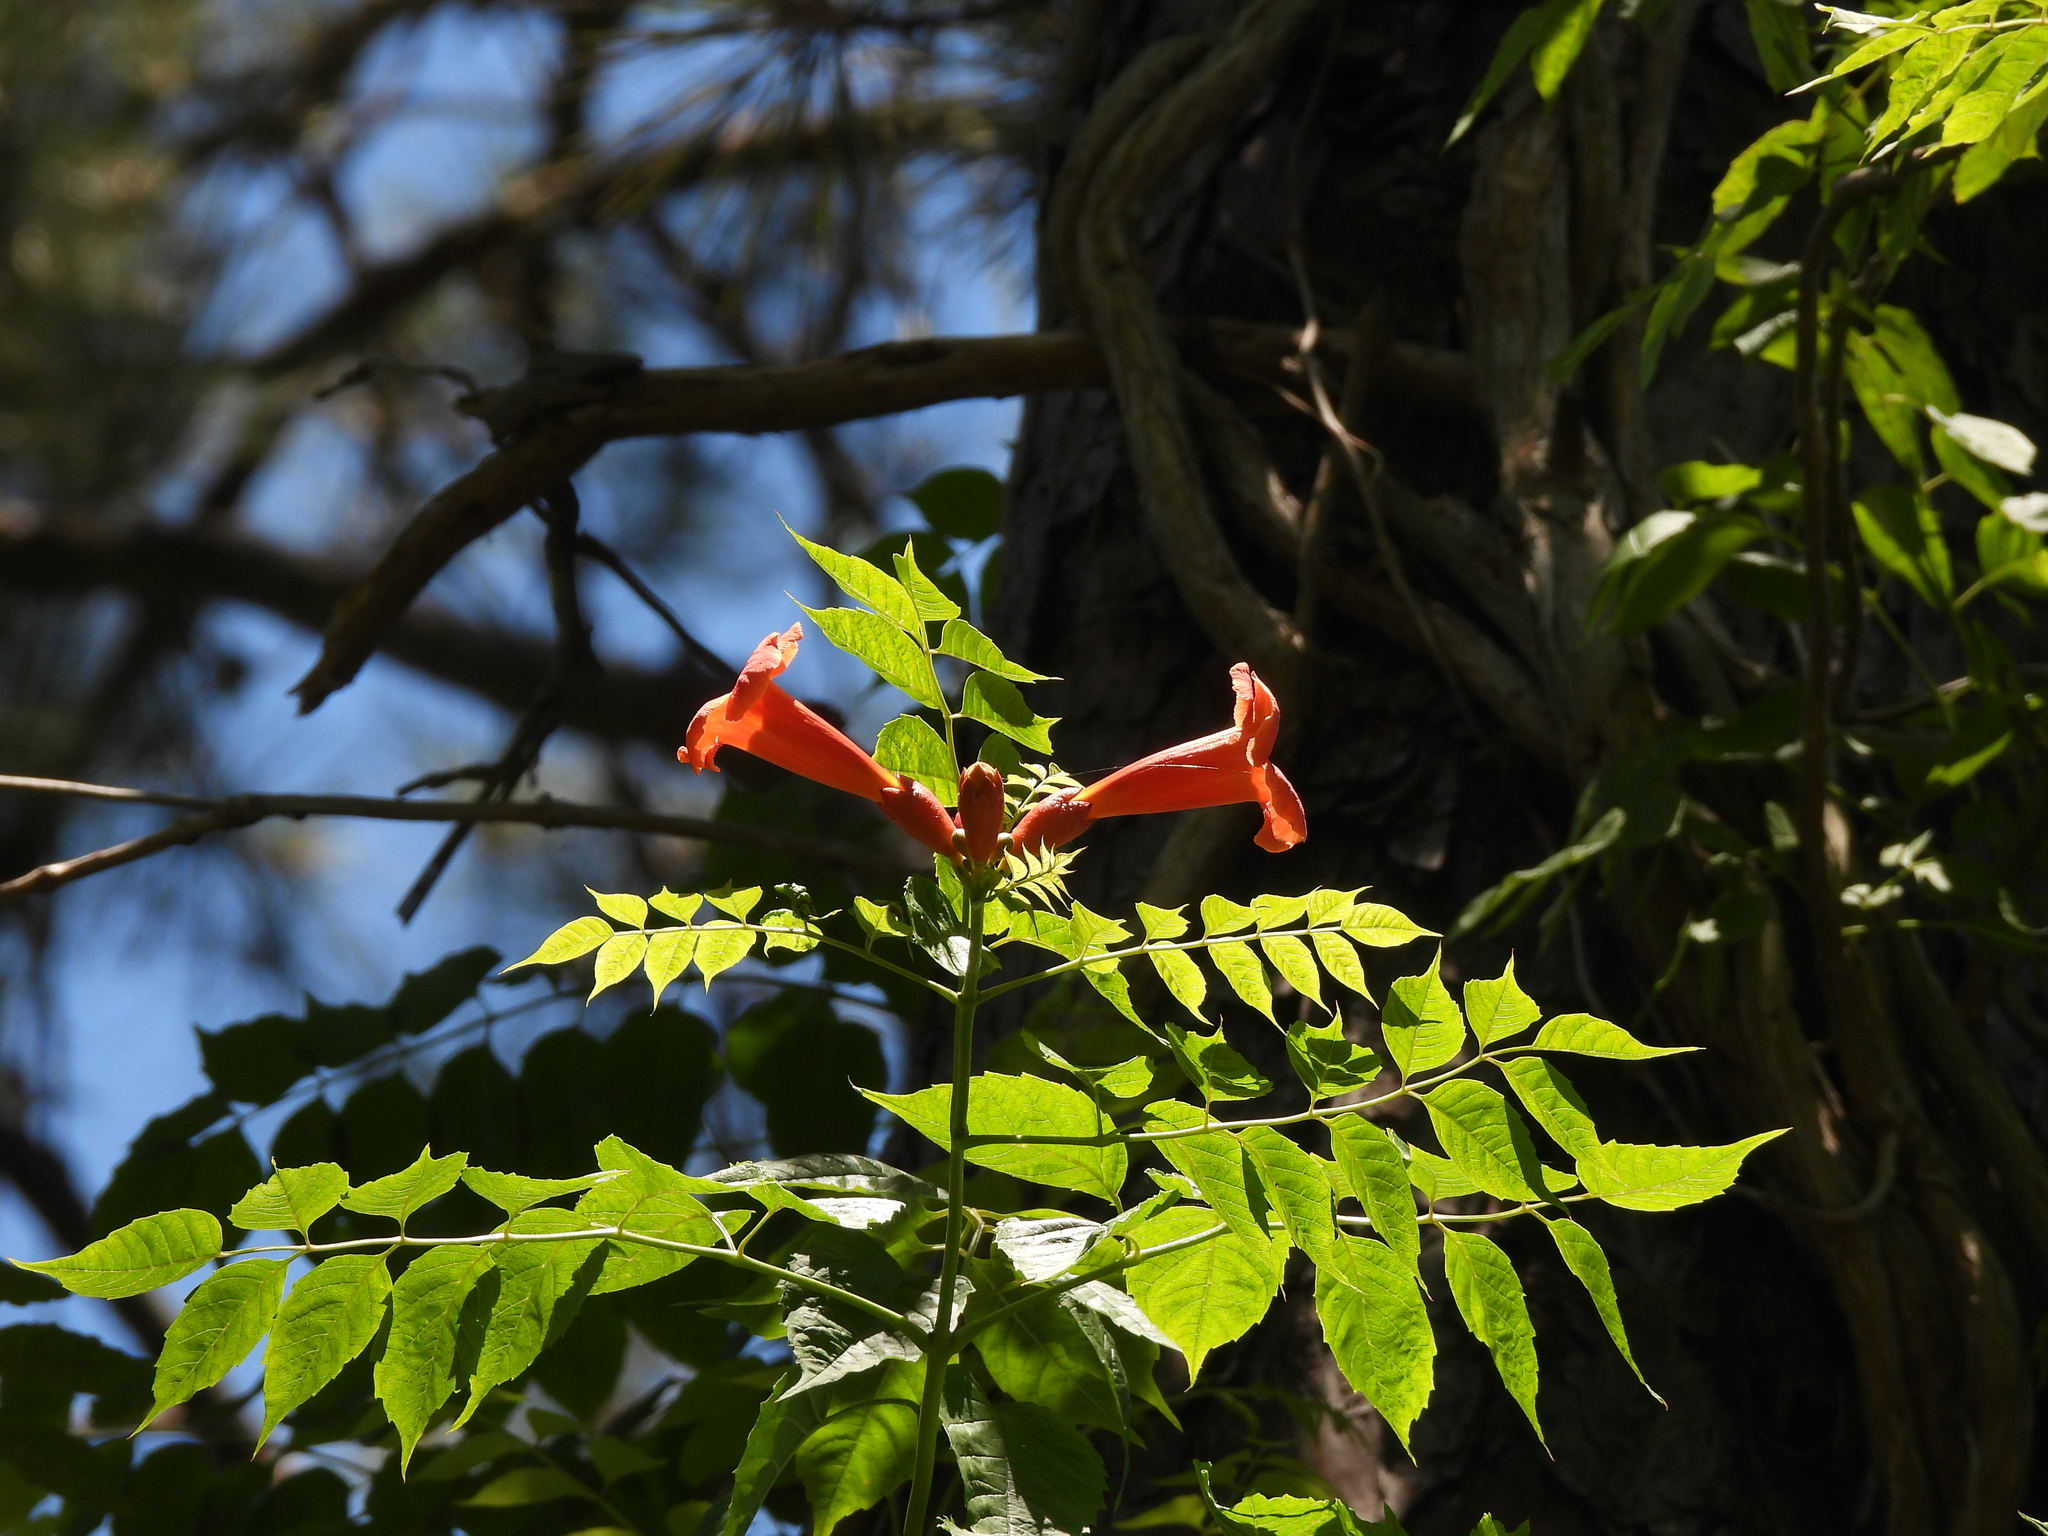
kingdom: Plantae
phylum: Tracheophyta
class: Magnoliopsida
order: Lamiales
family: Bignoniaceae
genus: Campsis
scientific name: Campsis radicans
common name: Trumpet-creeper
